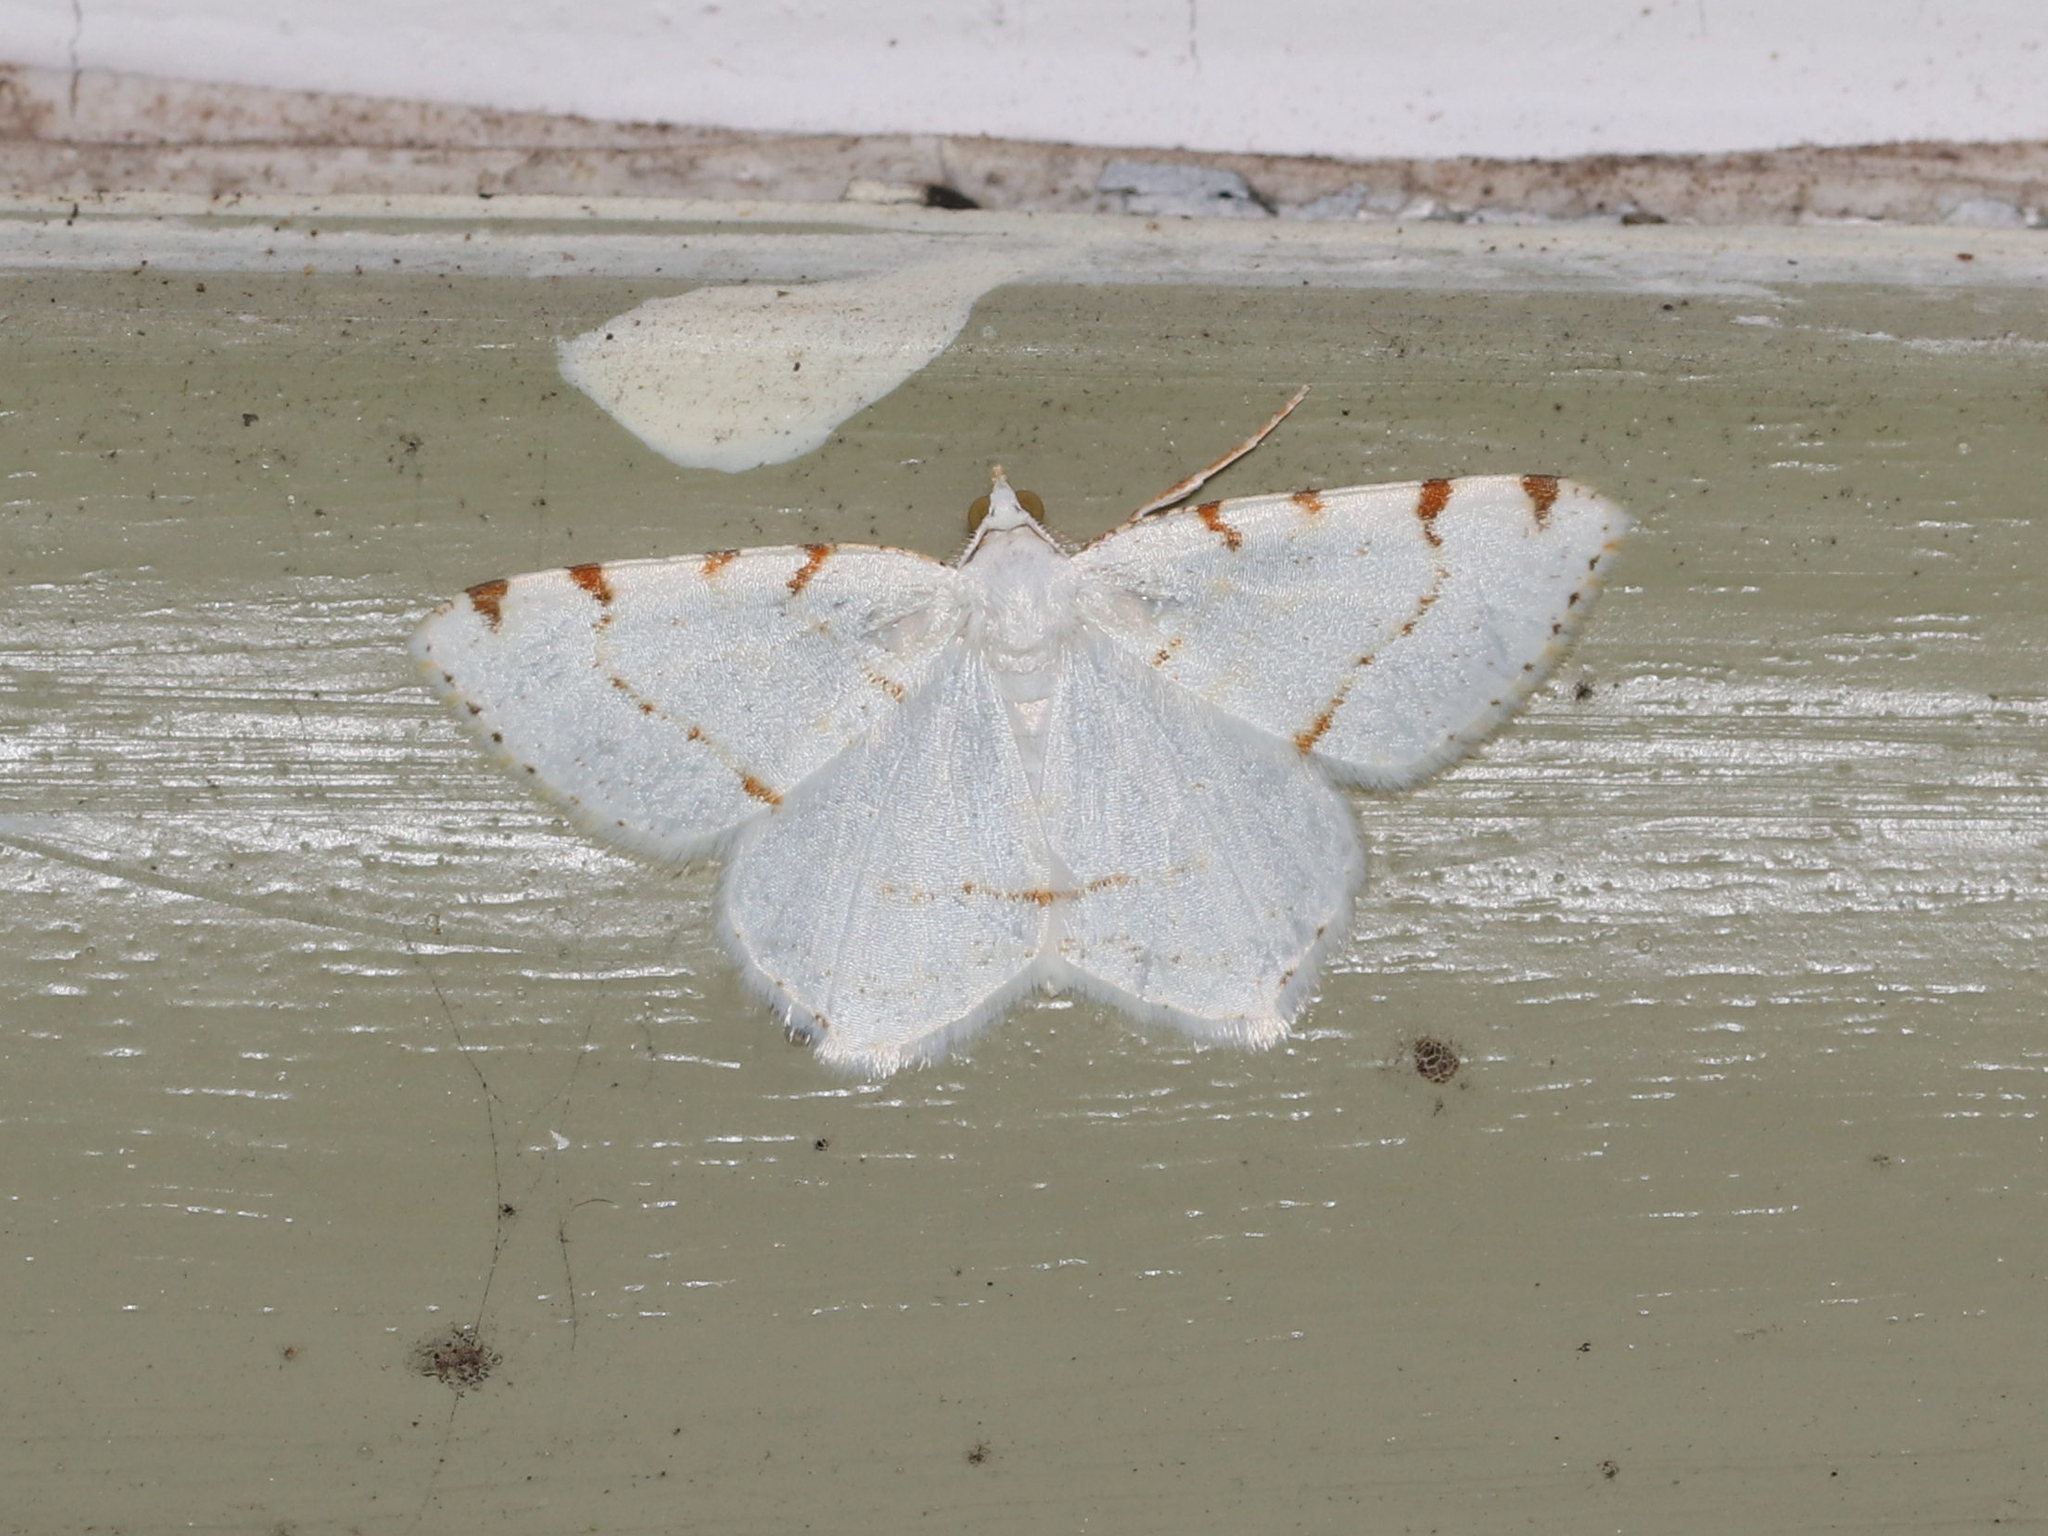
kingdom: Animalia
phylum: Arthropoda
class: Insecta
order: Lepidoptera
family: Geometridae
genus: Macaria
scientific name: Macaria pustularia
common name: Lesser maple spanworm moth
